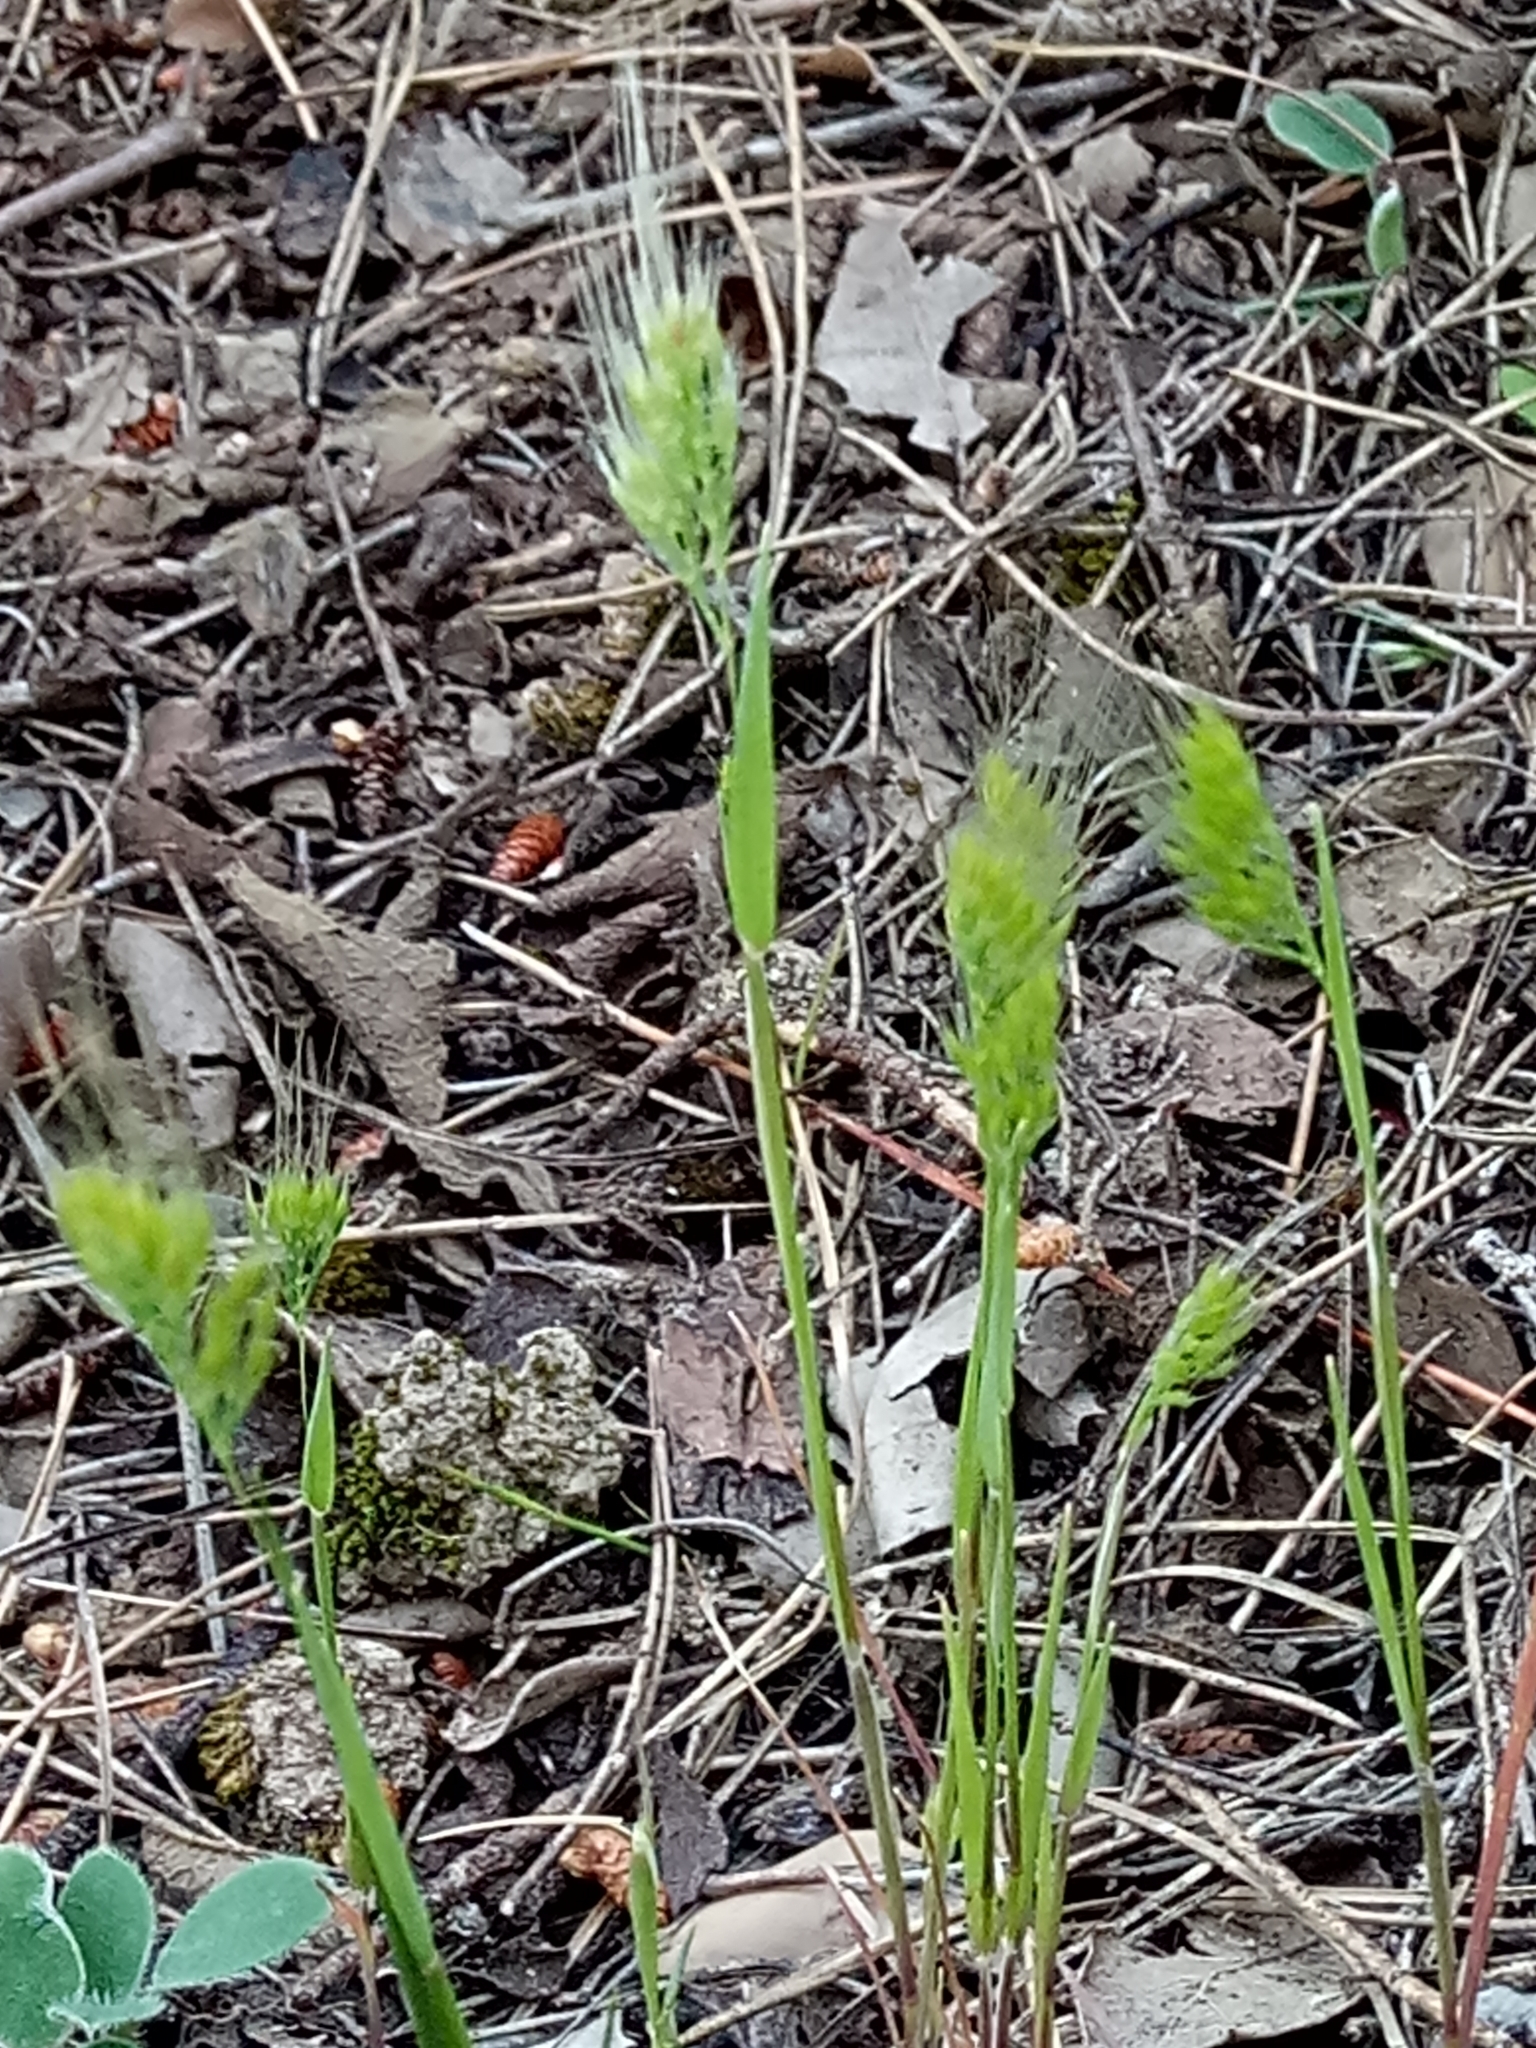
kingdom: Plantae
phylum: Tracheophyta
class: Liliopsida
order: Poales
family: Poaceae
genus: Cynosurus
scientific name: Cynosurus effusus
